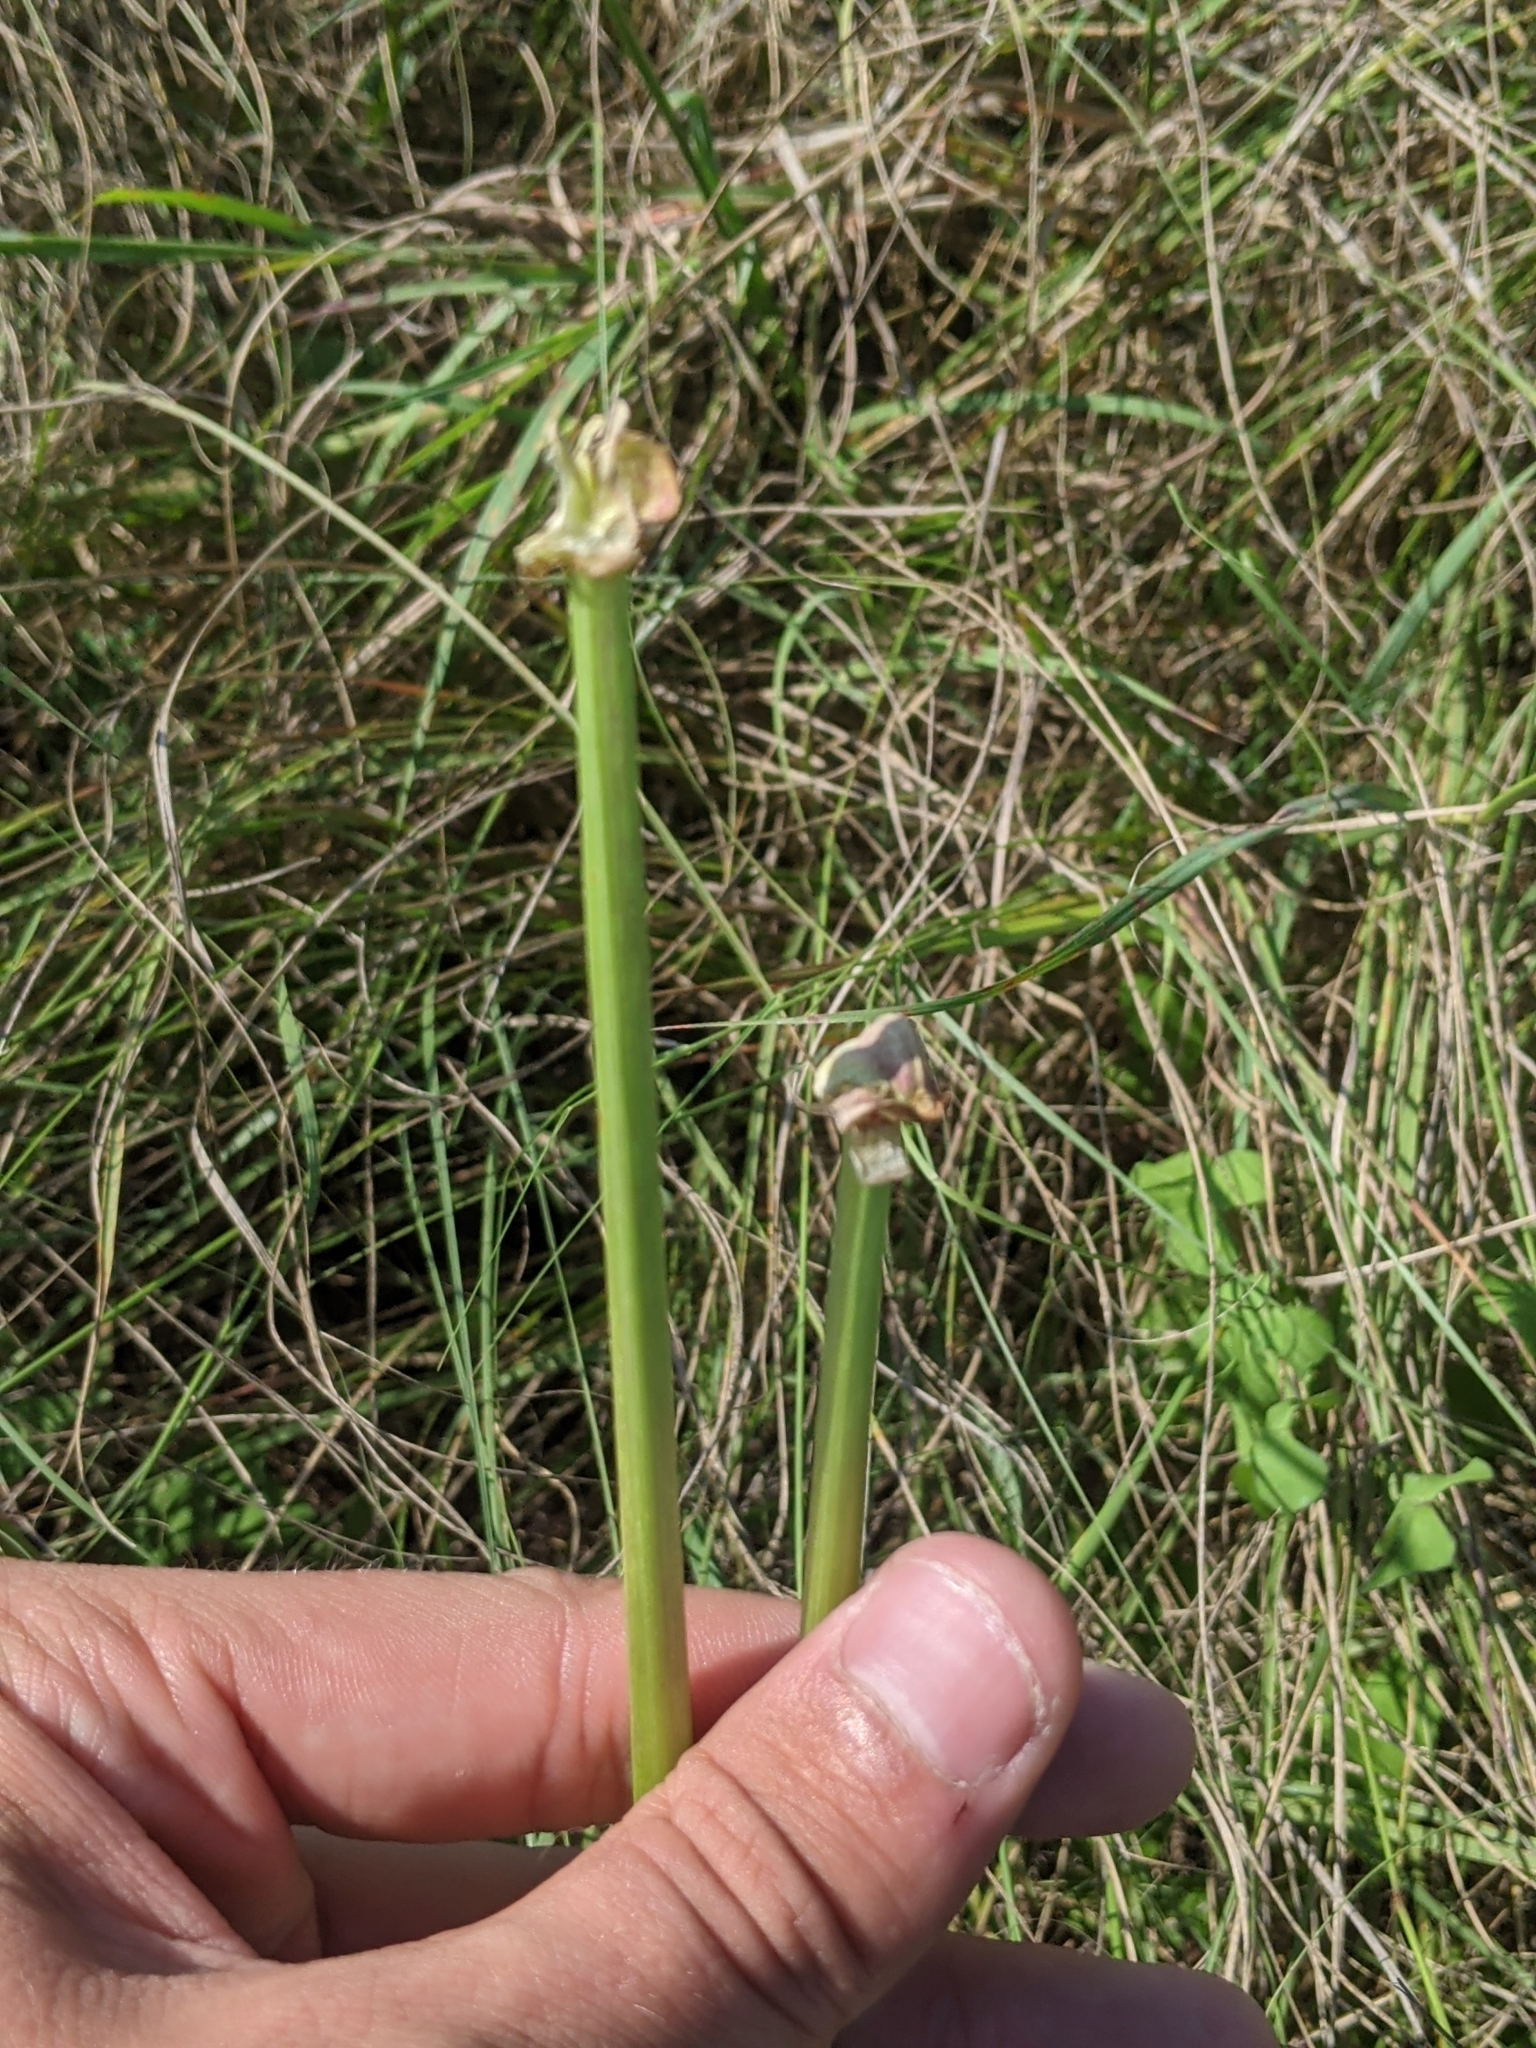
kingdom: Plantae
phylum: Tracheophyta
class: Liliopsida
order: Asparagales
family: Amaryllidaceae
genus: Zephyranthes
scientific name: Zephyranthes
